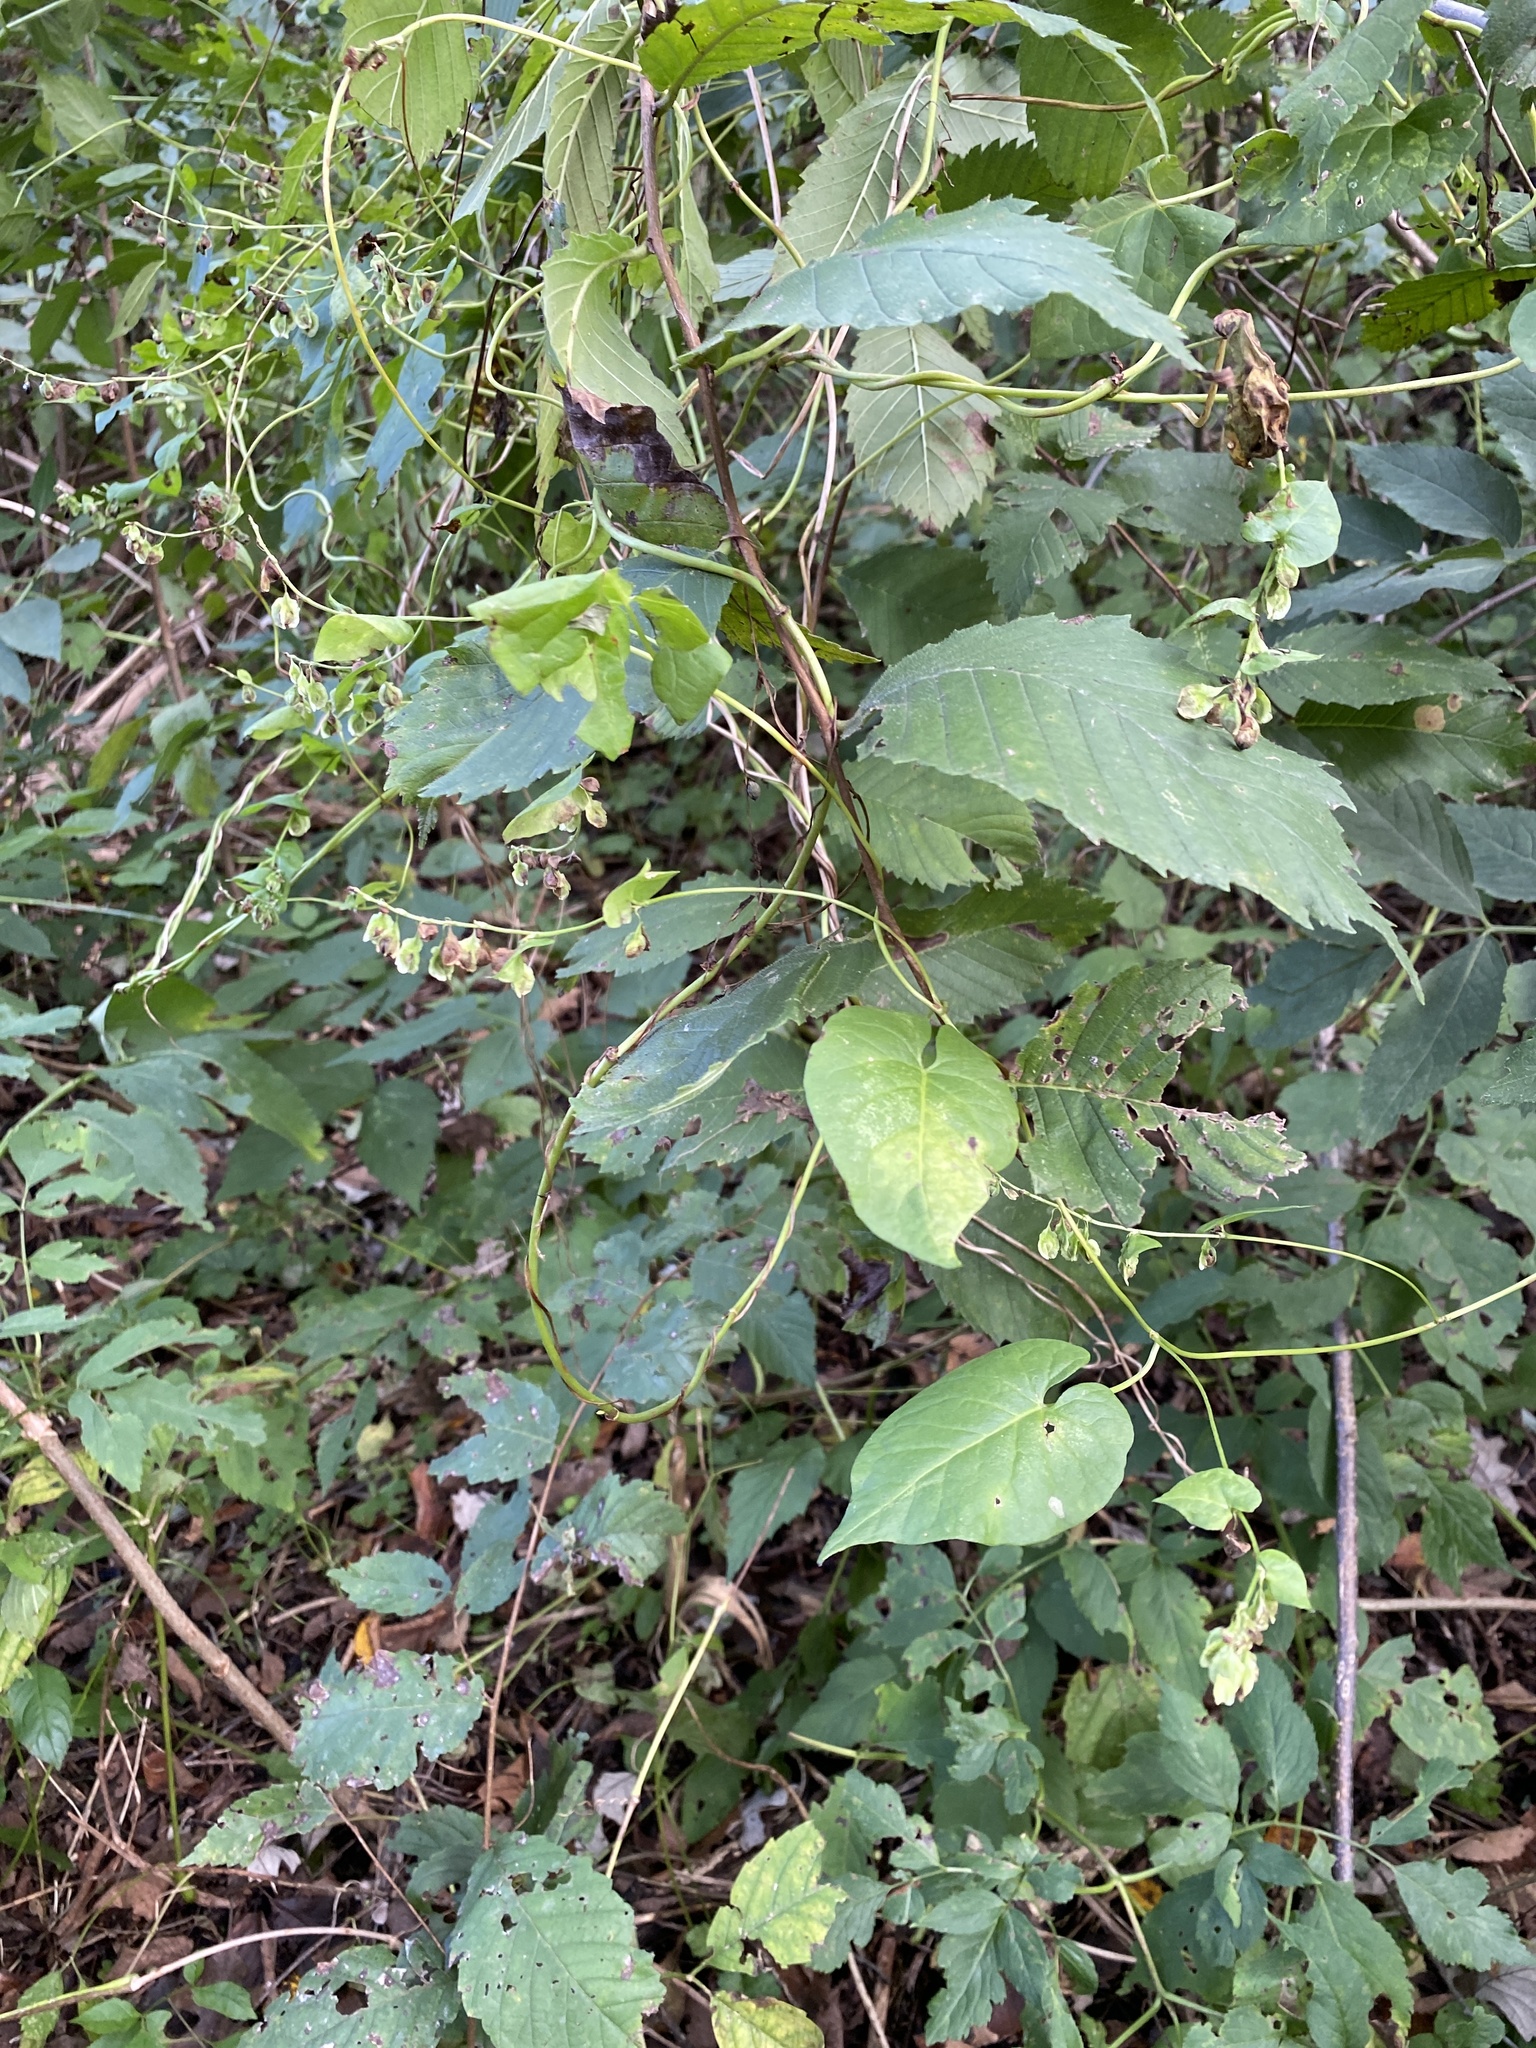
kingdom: Plantae
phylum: Tracheophyta
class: Magnoliopsida
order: Caryophyllales
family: Polygonaceae
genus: Fallopia
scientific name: Fallopia scandens
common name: Climbing false buckwheat
